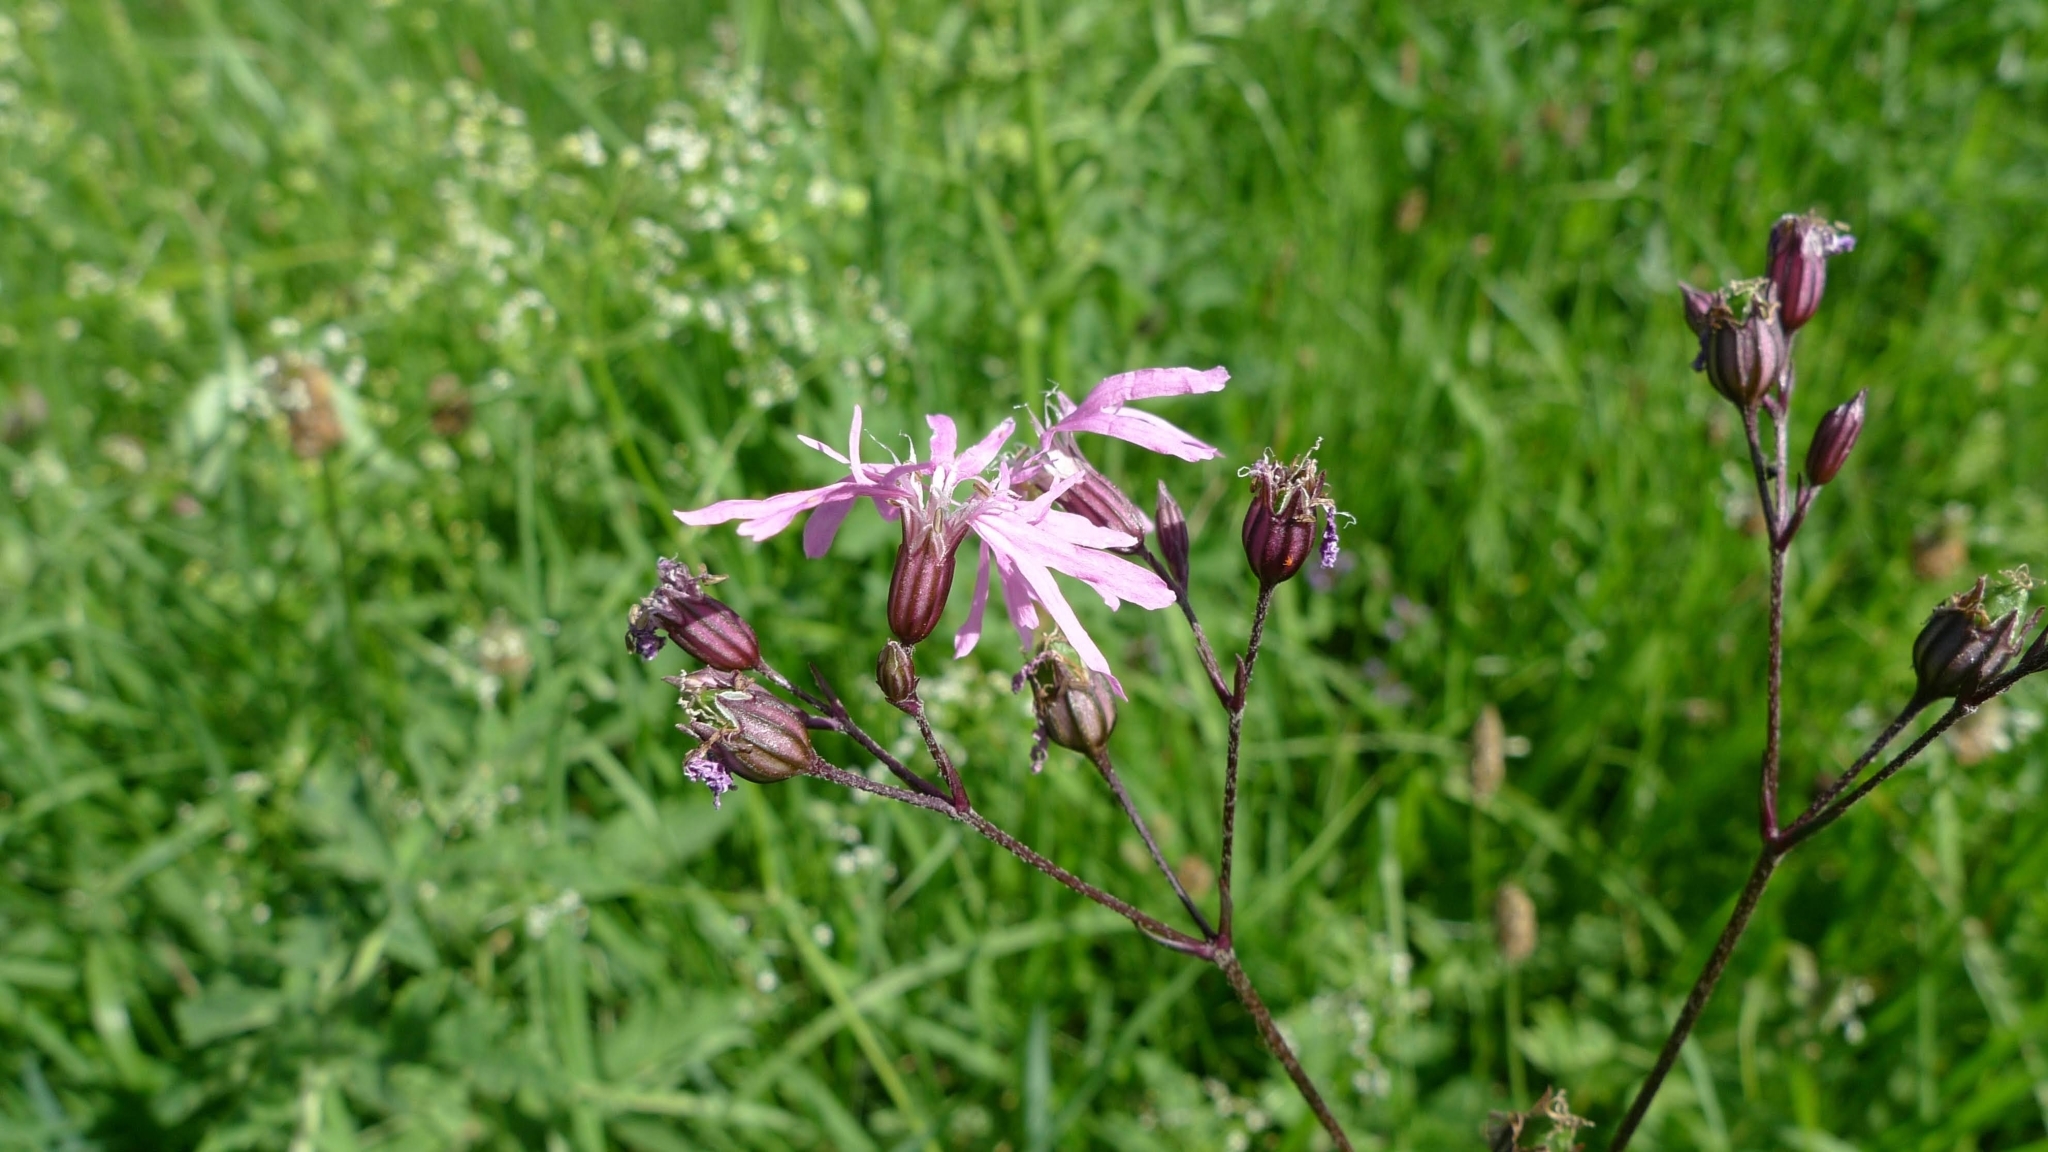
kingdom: Plantae
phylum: Tracheophyta
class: Magnoliopsida
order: Caryophyllales
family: Caryophyllaceae
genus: Silene
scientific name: Silene flos-cuculi
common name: Ragged-robin
